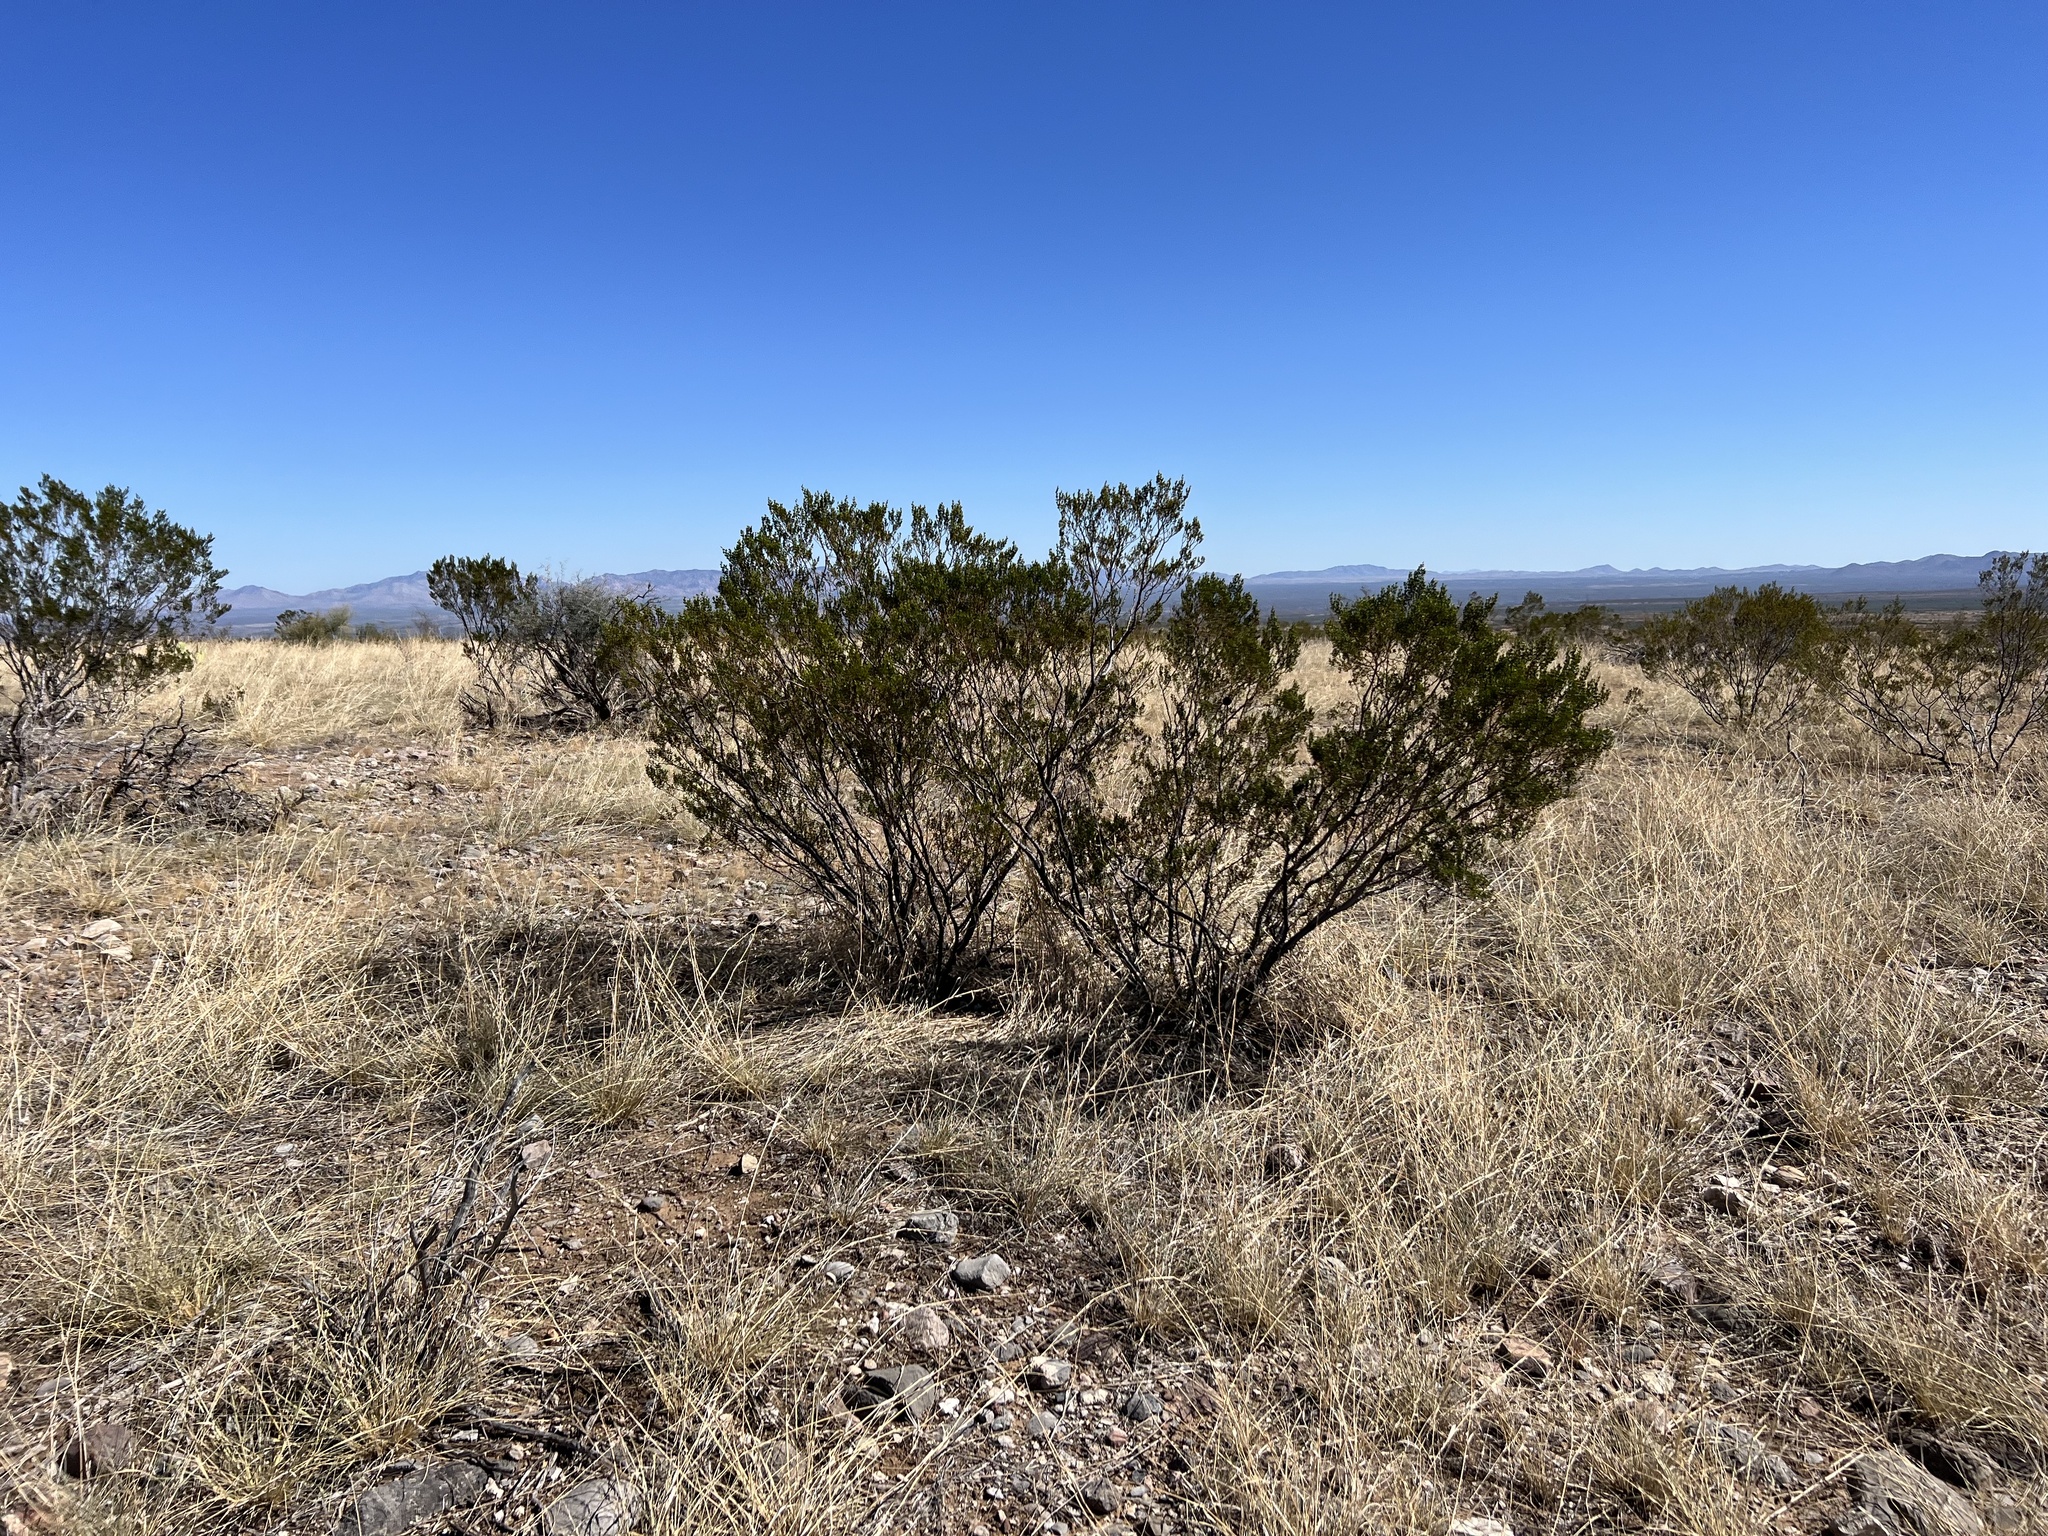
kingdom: Plantae
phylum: Tracheophyta
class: Magnoliopsida
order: Zygophyllales
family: Zygophyllaceae
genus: Larrea
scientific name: Larrea tridentata
